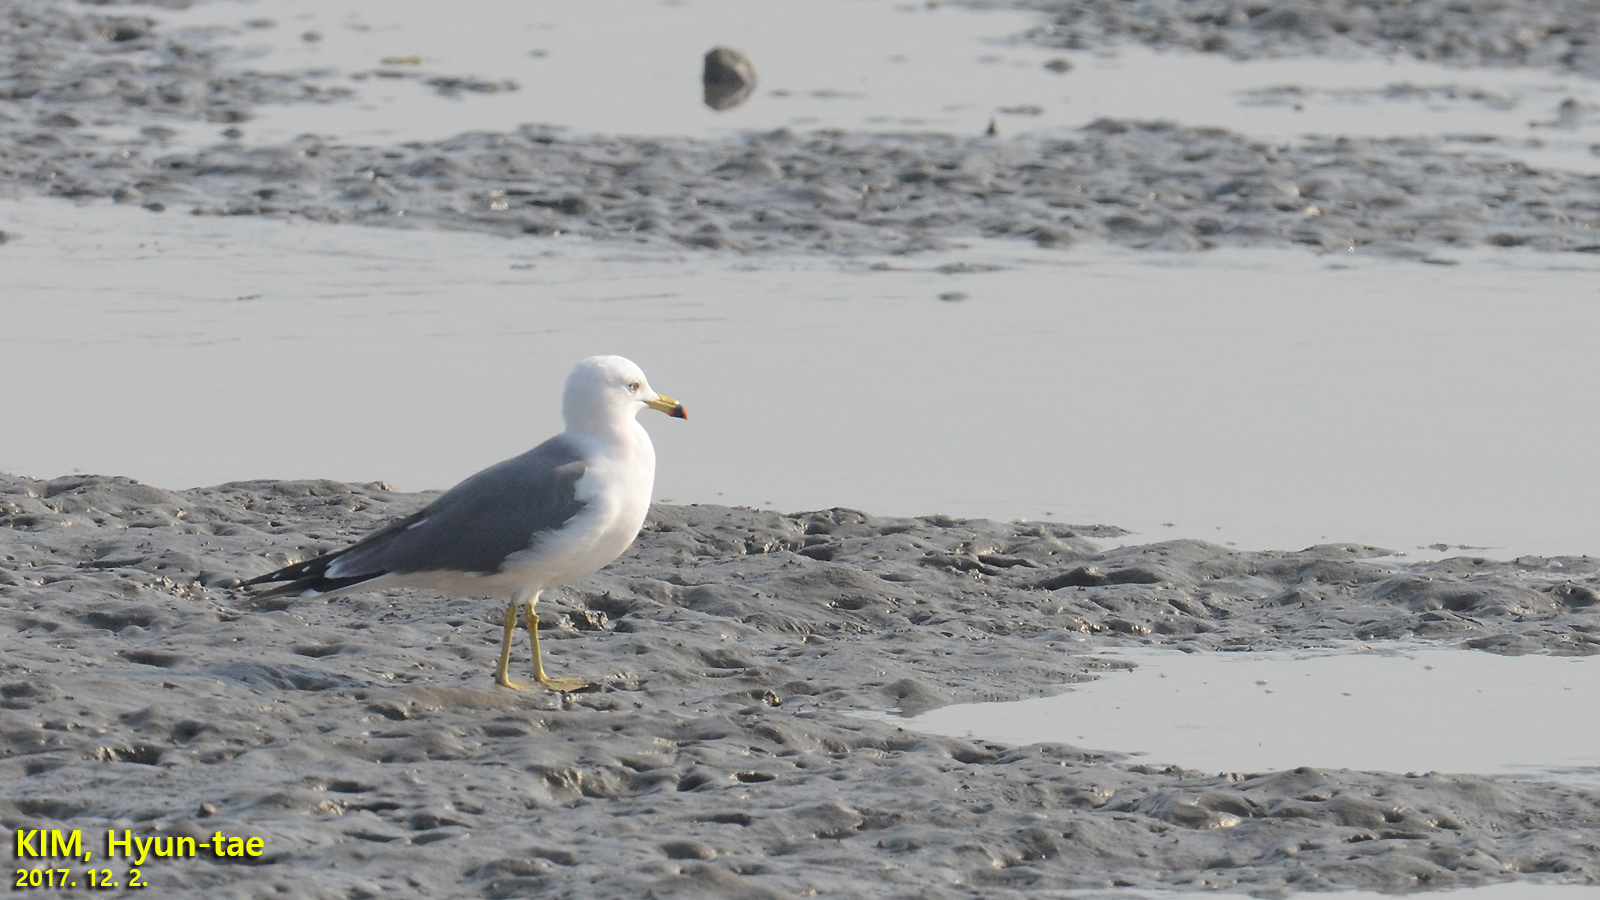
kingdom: Animalia
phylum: Chordata
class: Aves
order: Charadriiformes
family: Laridae
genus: Larus
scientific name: Larus crassirostris
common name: Black-tailed gull
